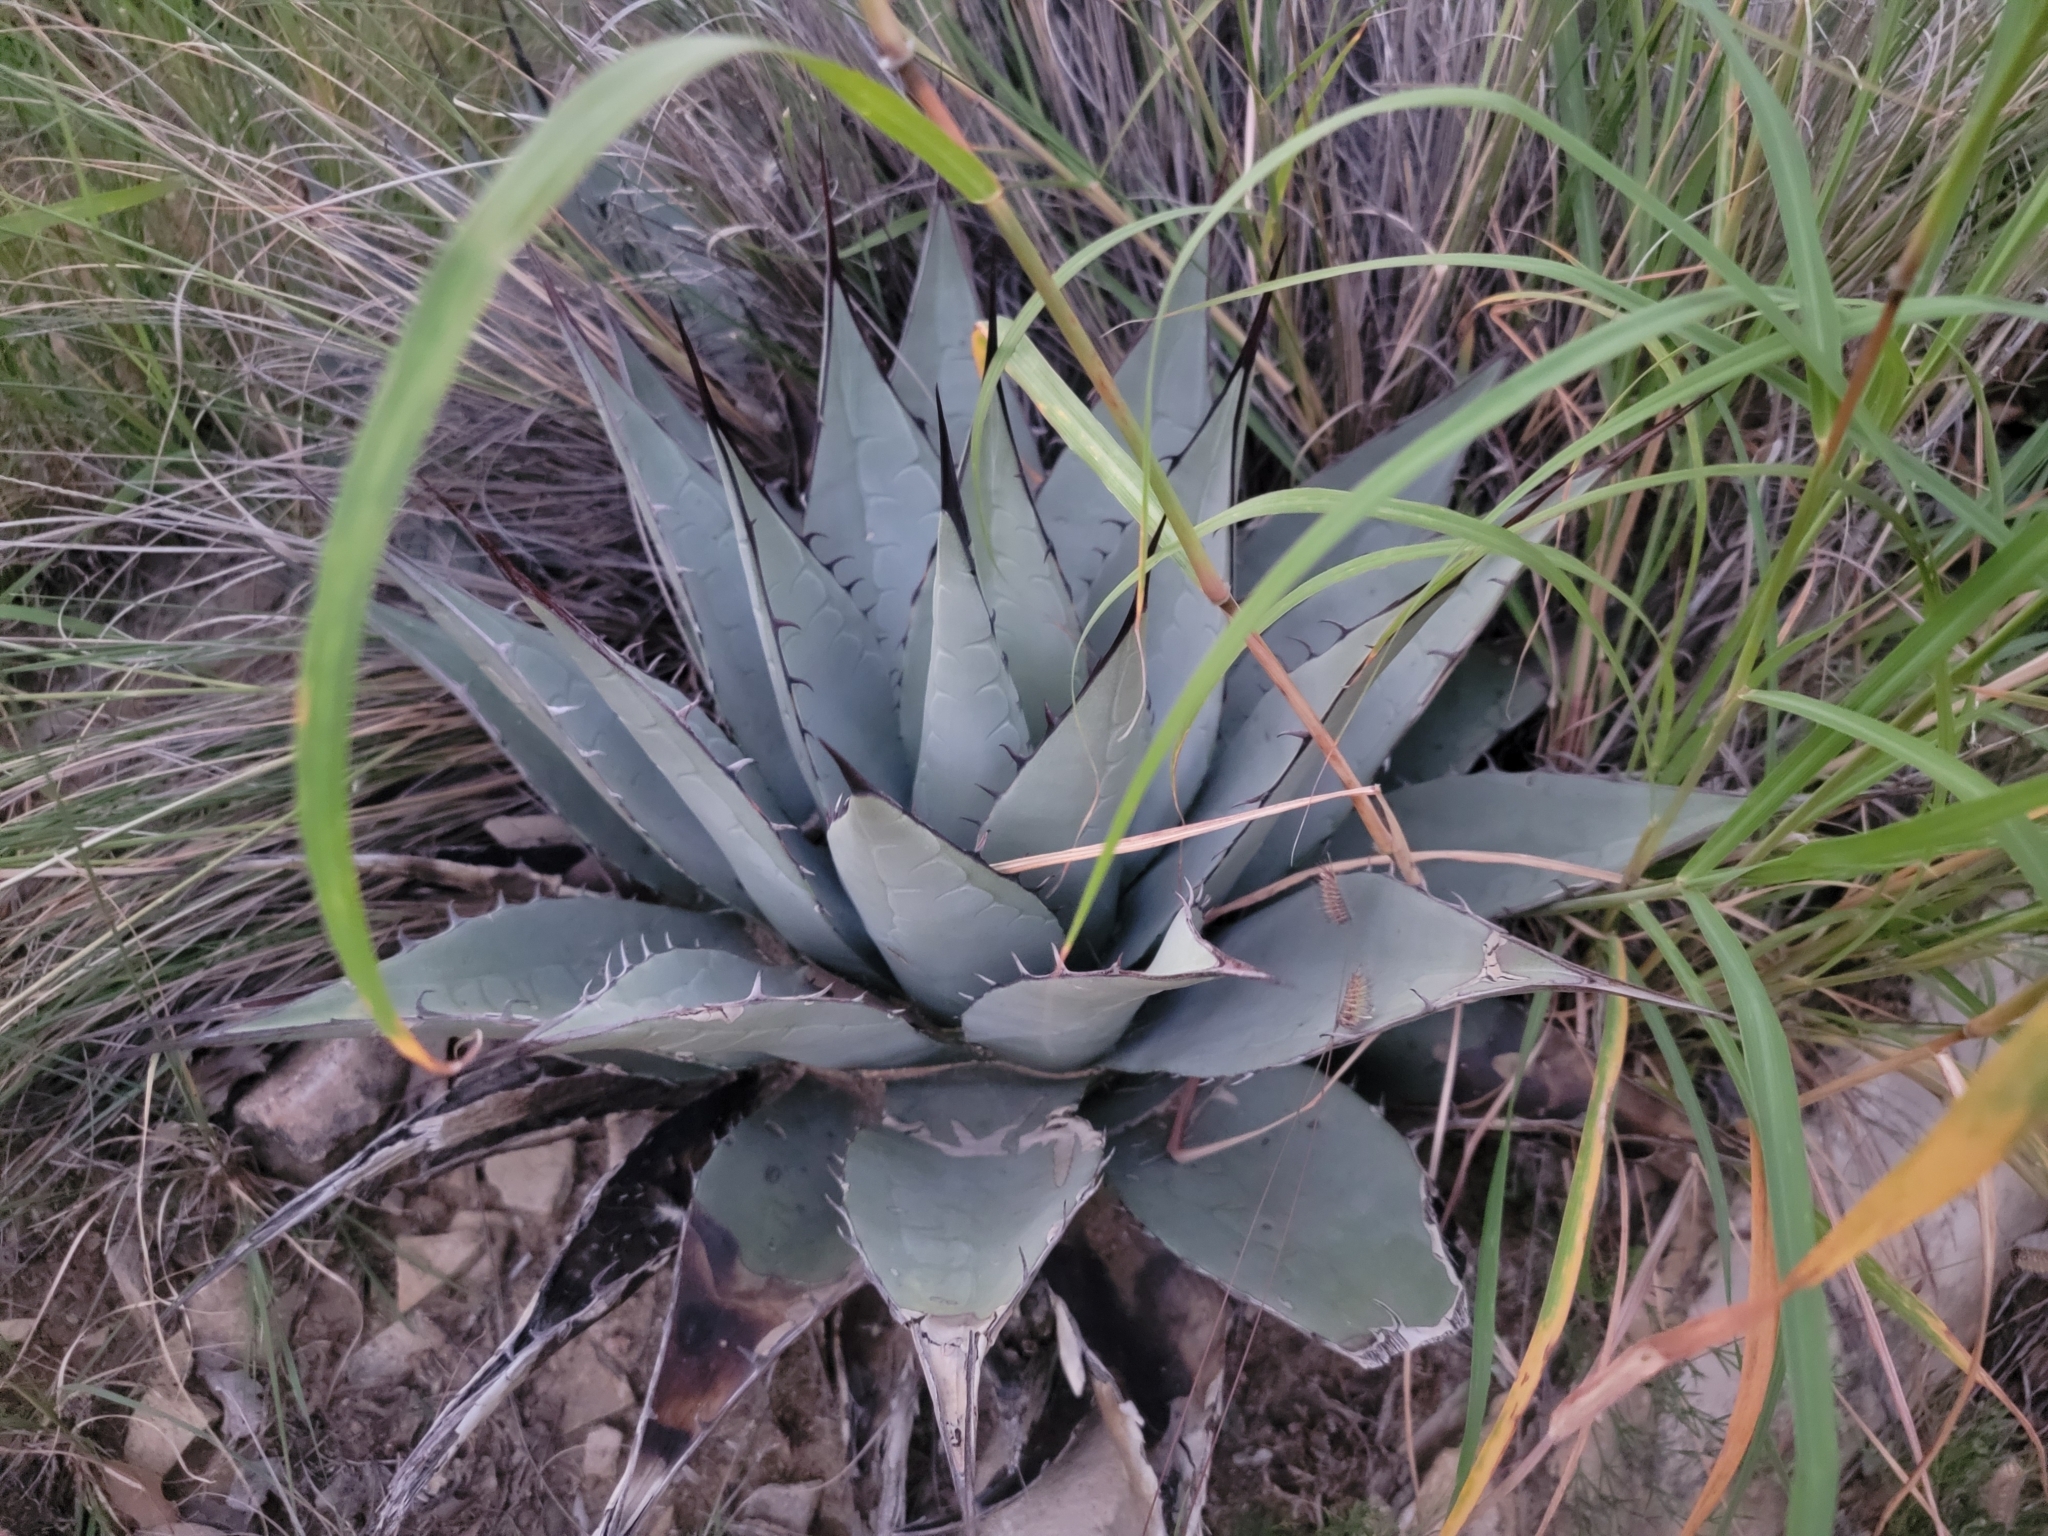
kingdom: Plantae
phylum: Tracheophyta
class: Liliopsida
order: Asparagales
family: Asparagaceae
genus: Agave
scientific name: Agave parryi
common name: Parry's agave
